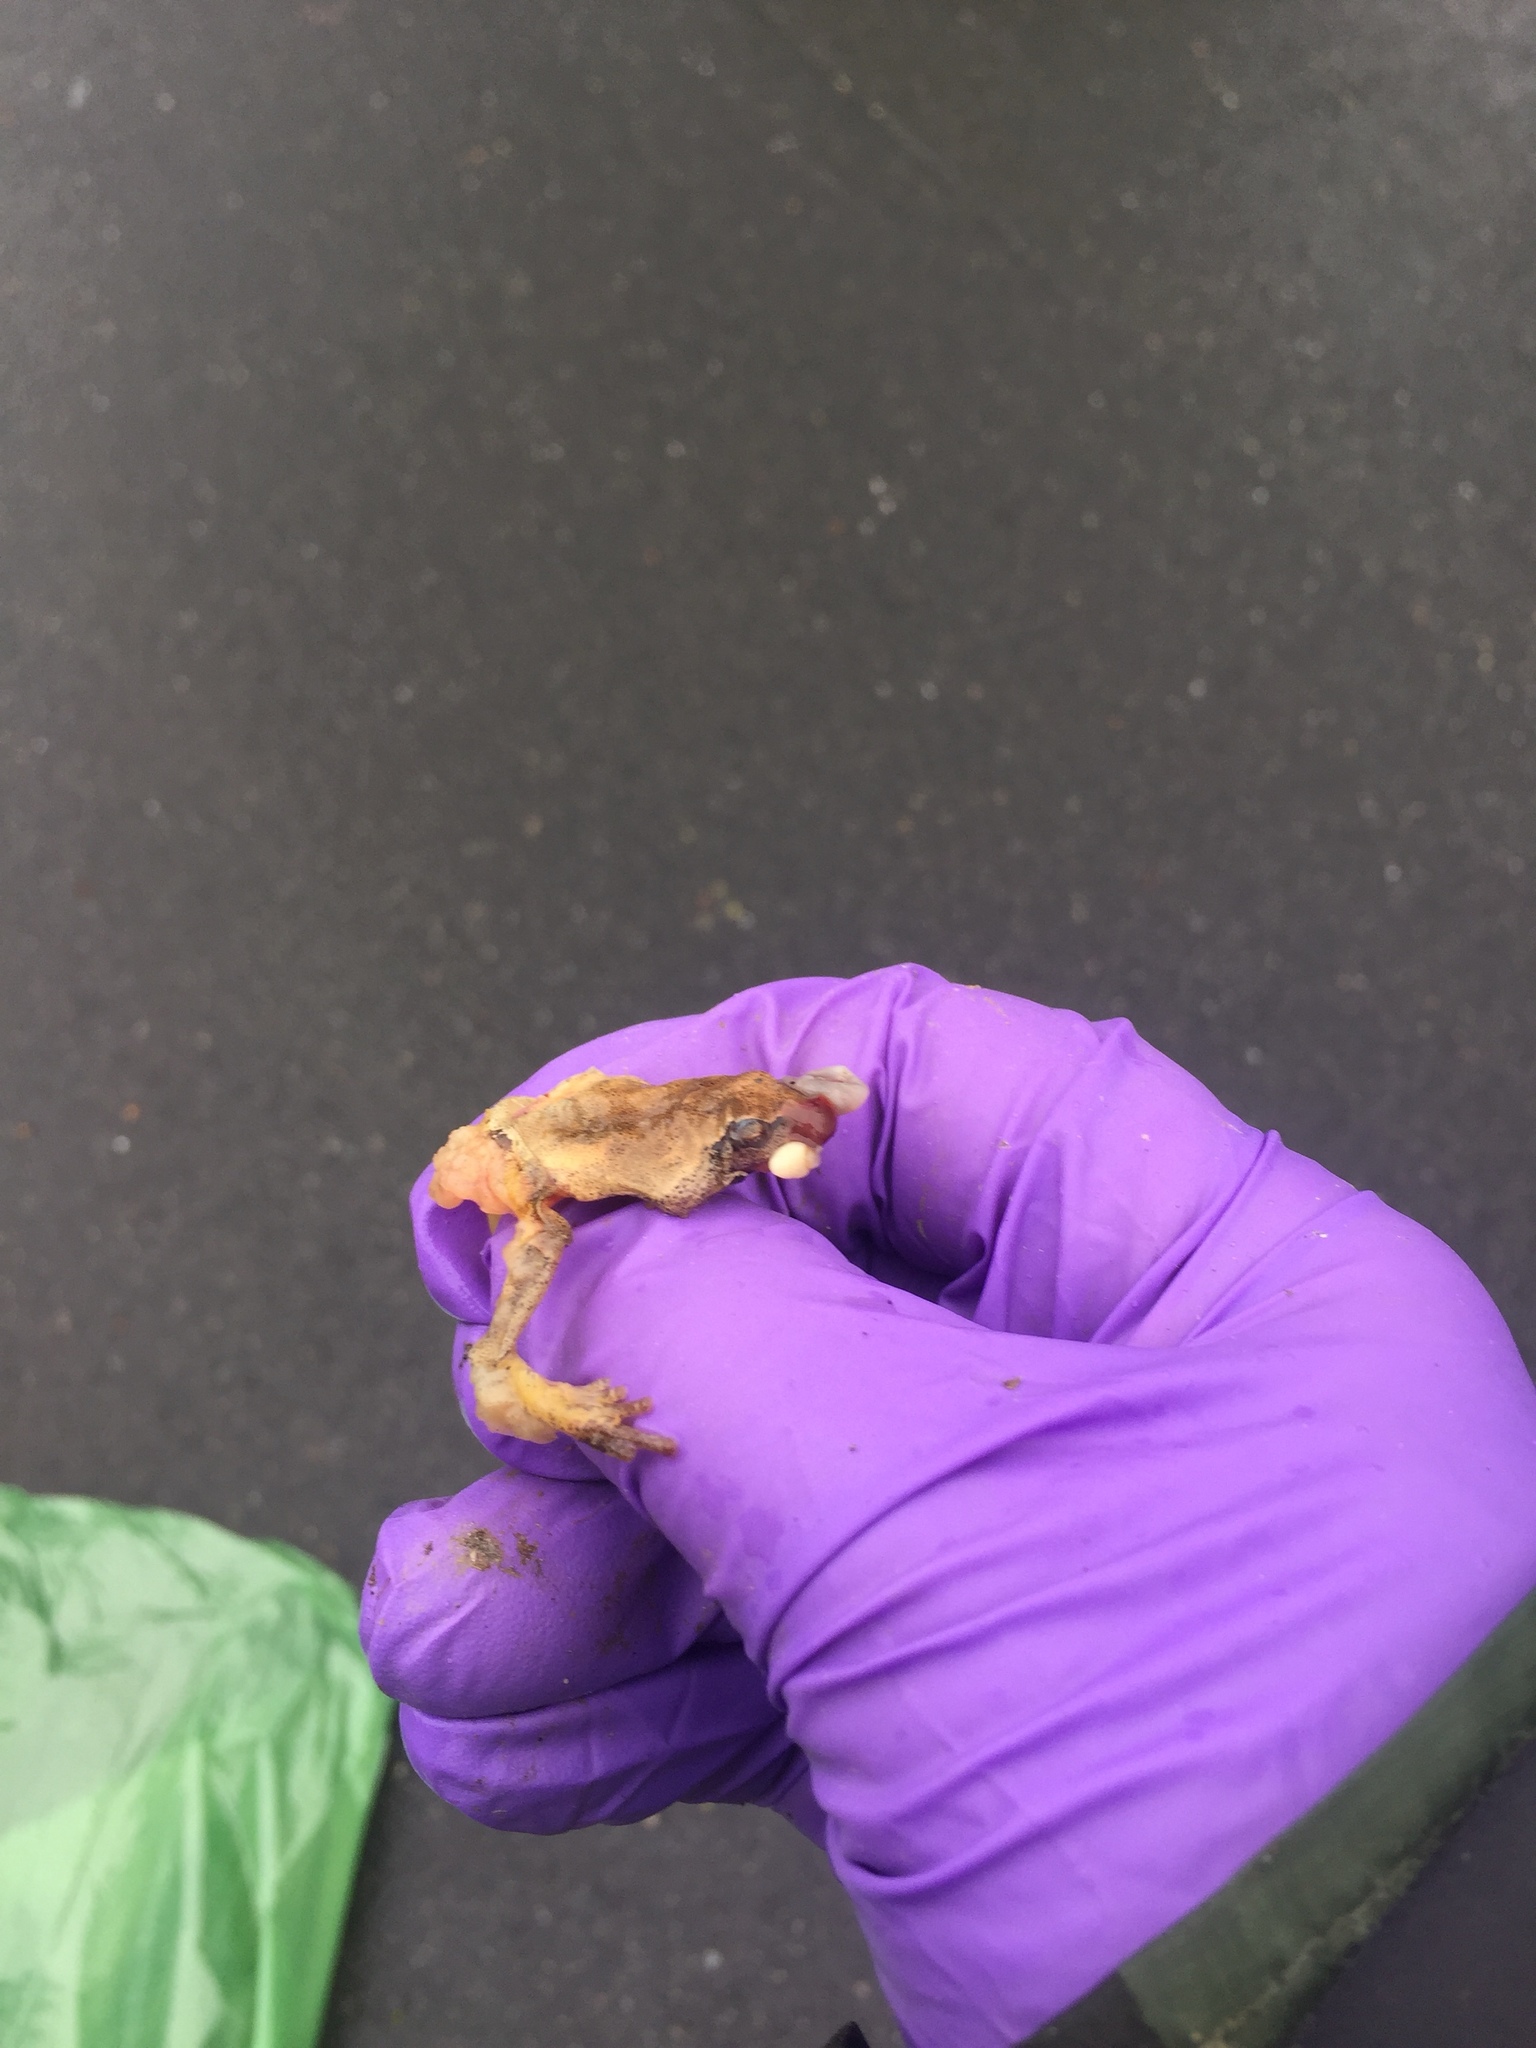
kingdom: Animalia
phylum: Chordata
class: Amphibia
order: Anura
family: Hylidae
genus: Pseudacris
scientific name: Pseudacris crucifer
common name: Spring peeper
